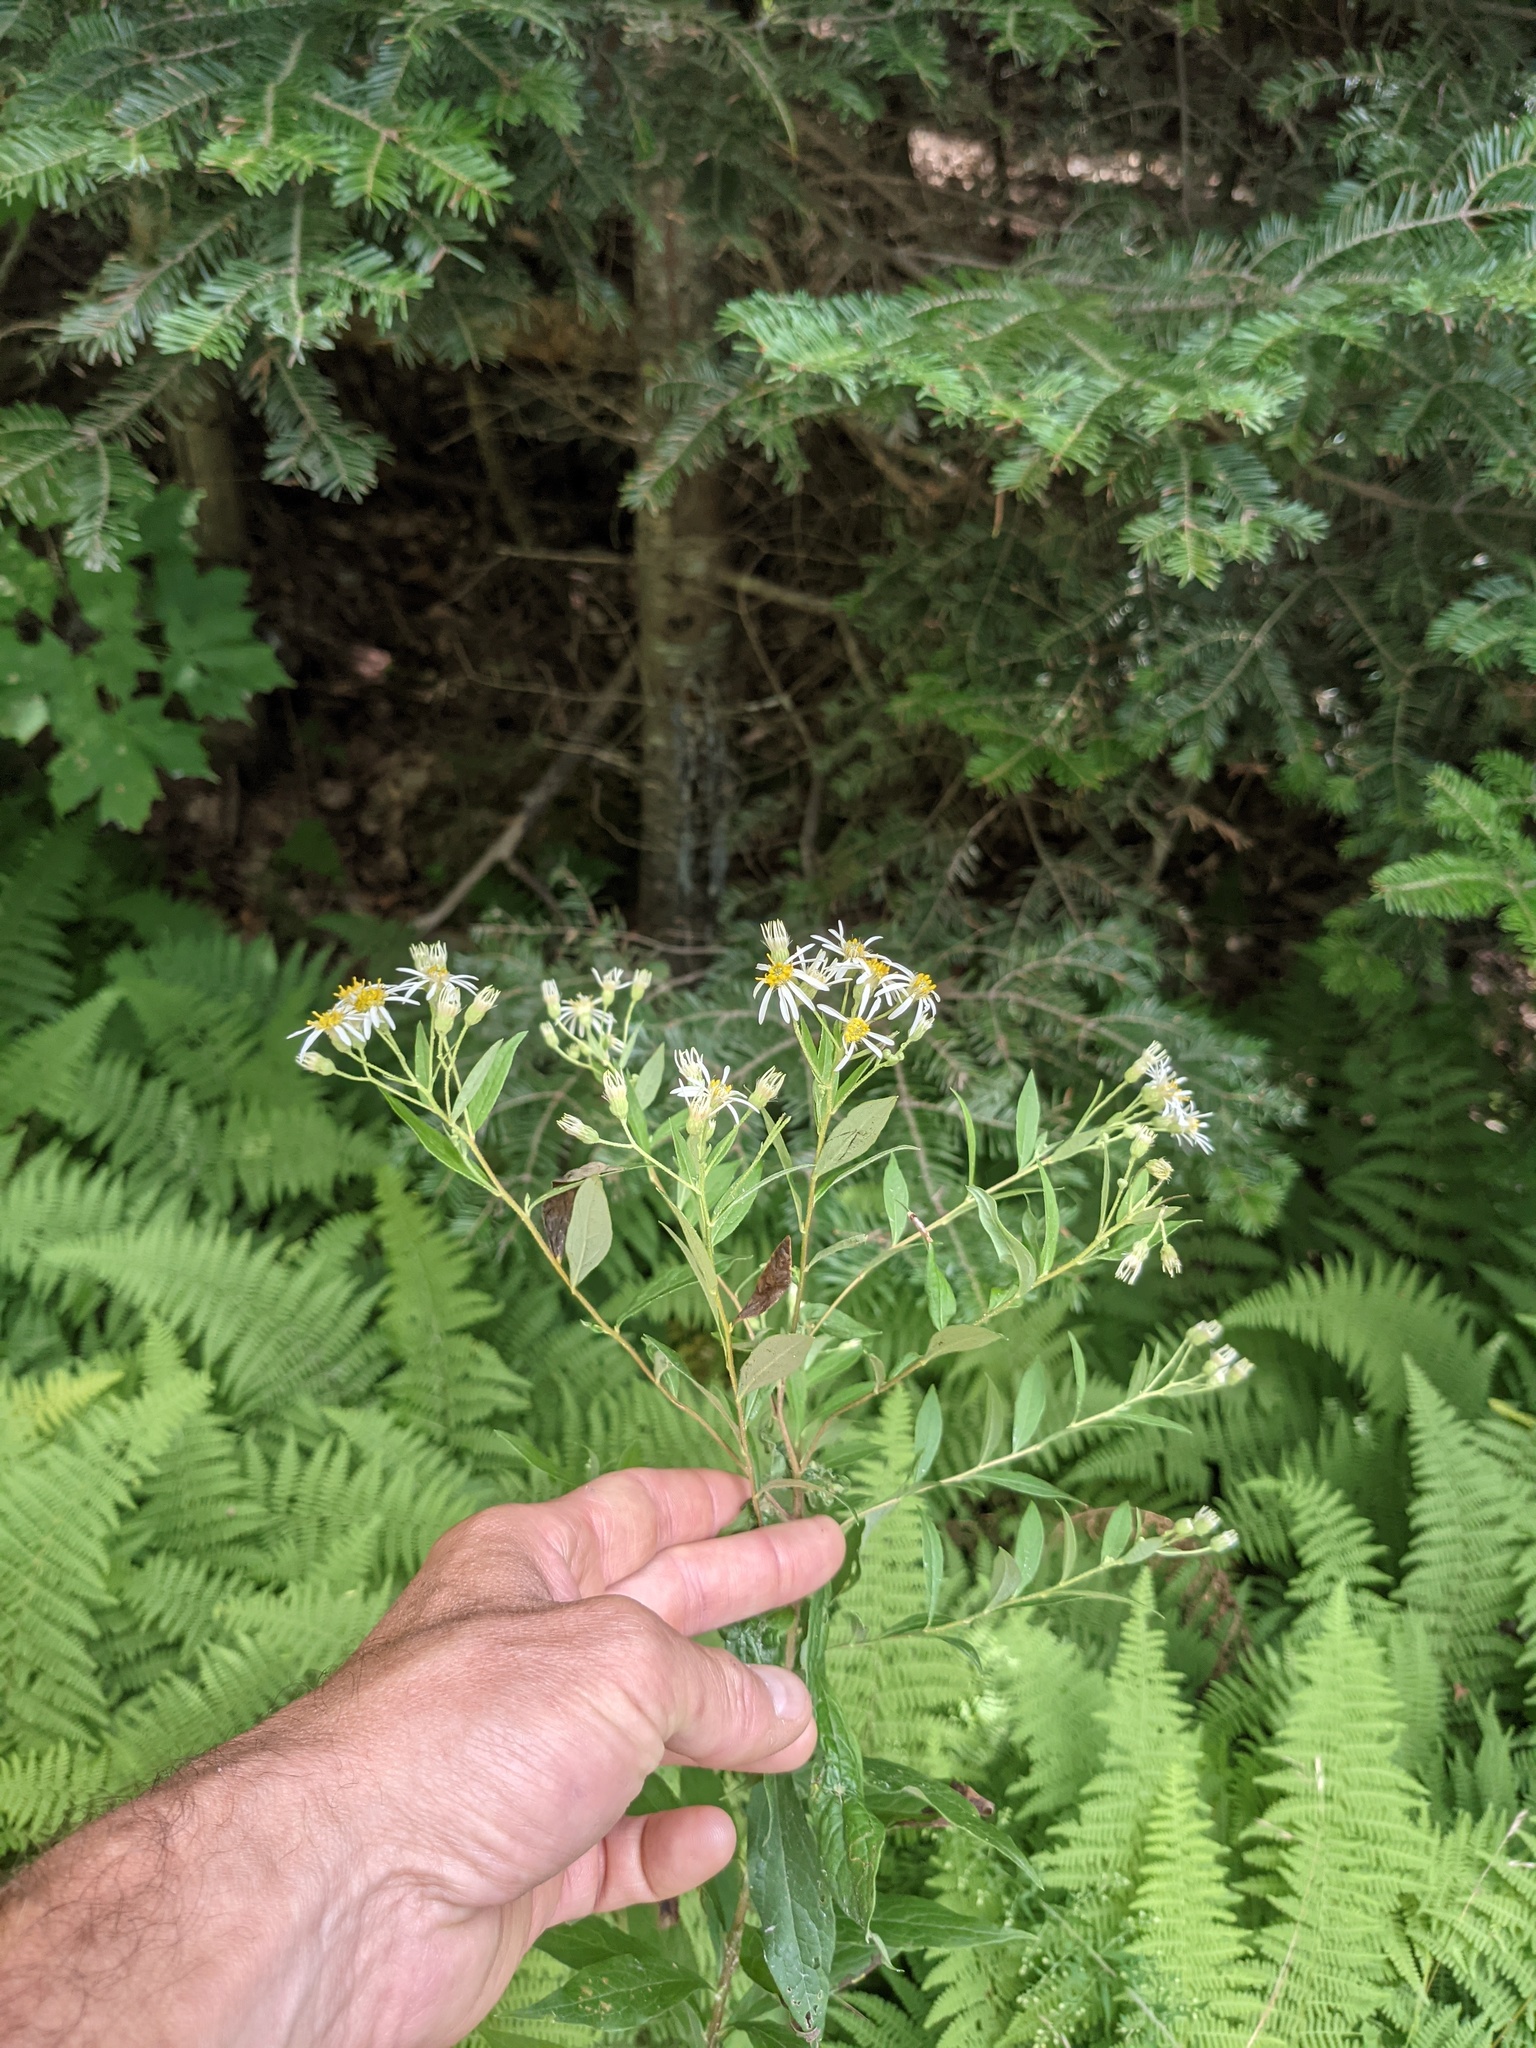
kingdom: Plantae
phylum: Tracheophyta
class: Magnoliopsida
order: Asterales
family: Asteraceae
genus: Doellingeria
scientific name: Doellingeria umbellata
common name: Flat-top white aster
